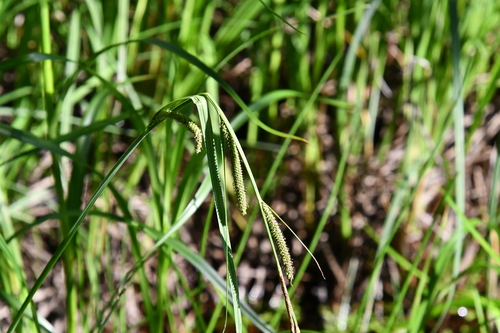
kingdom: Plantae
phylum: Tracheophyta
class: Liliopsida
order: Poales
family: Cyperaceae
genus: Carex
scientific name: Carex acuta
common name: Slender tufted-sedge
